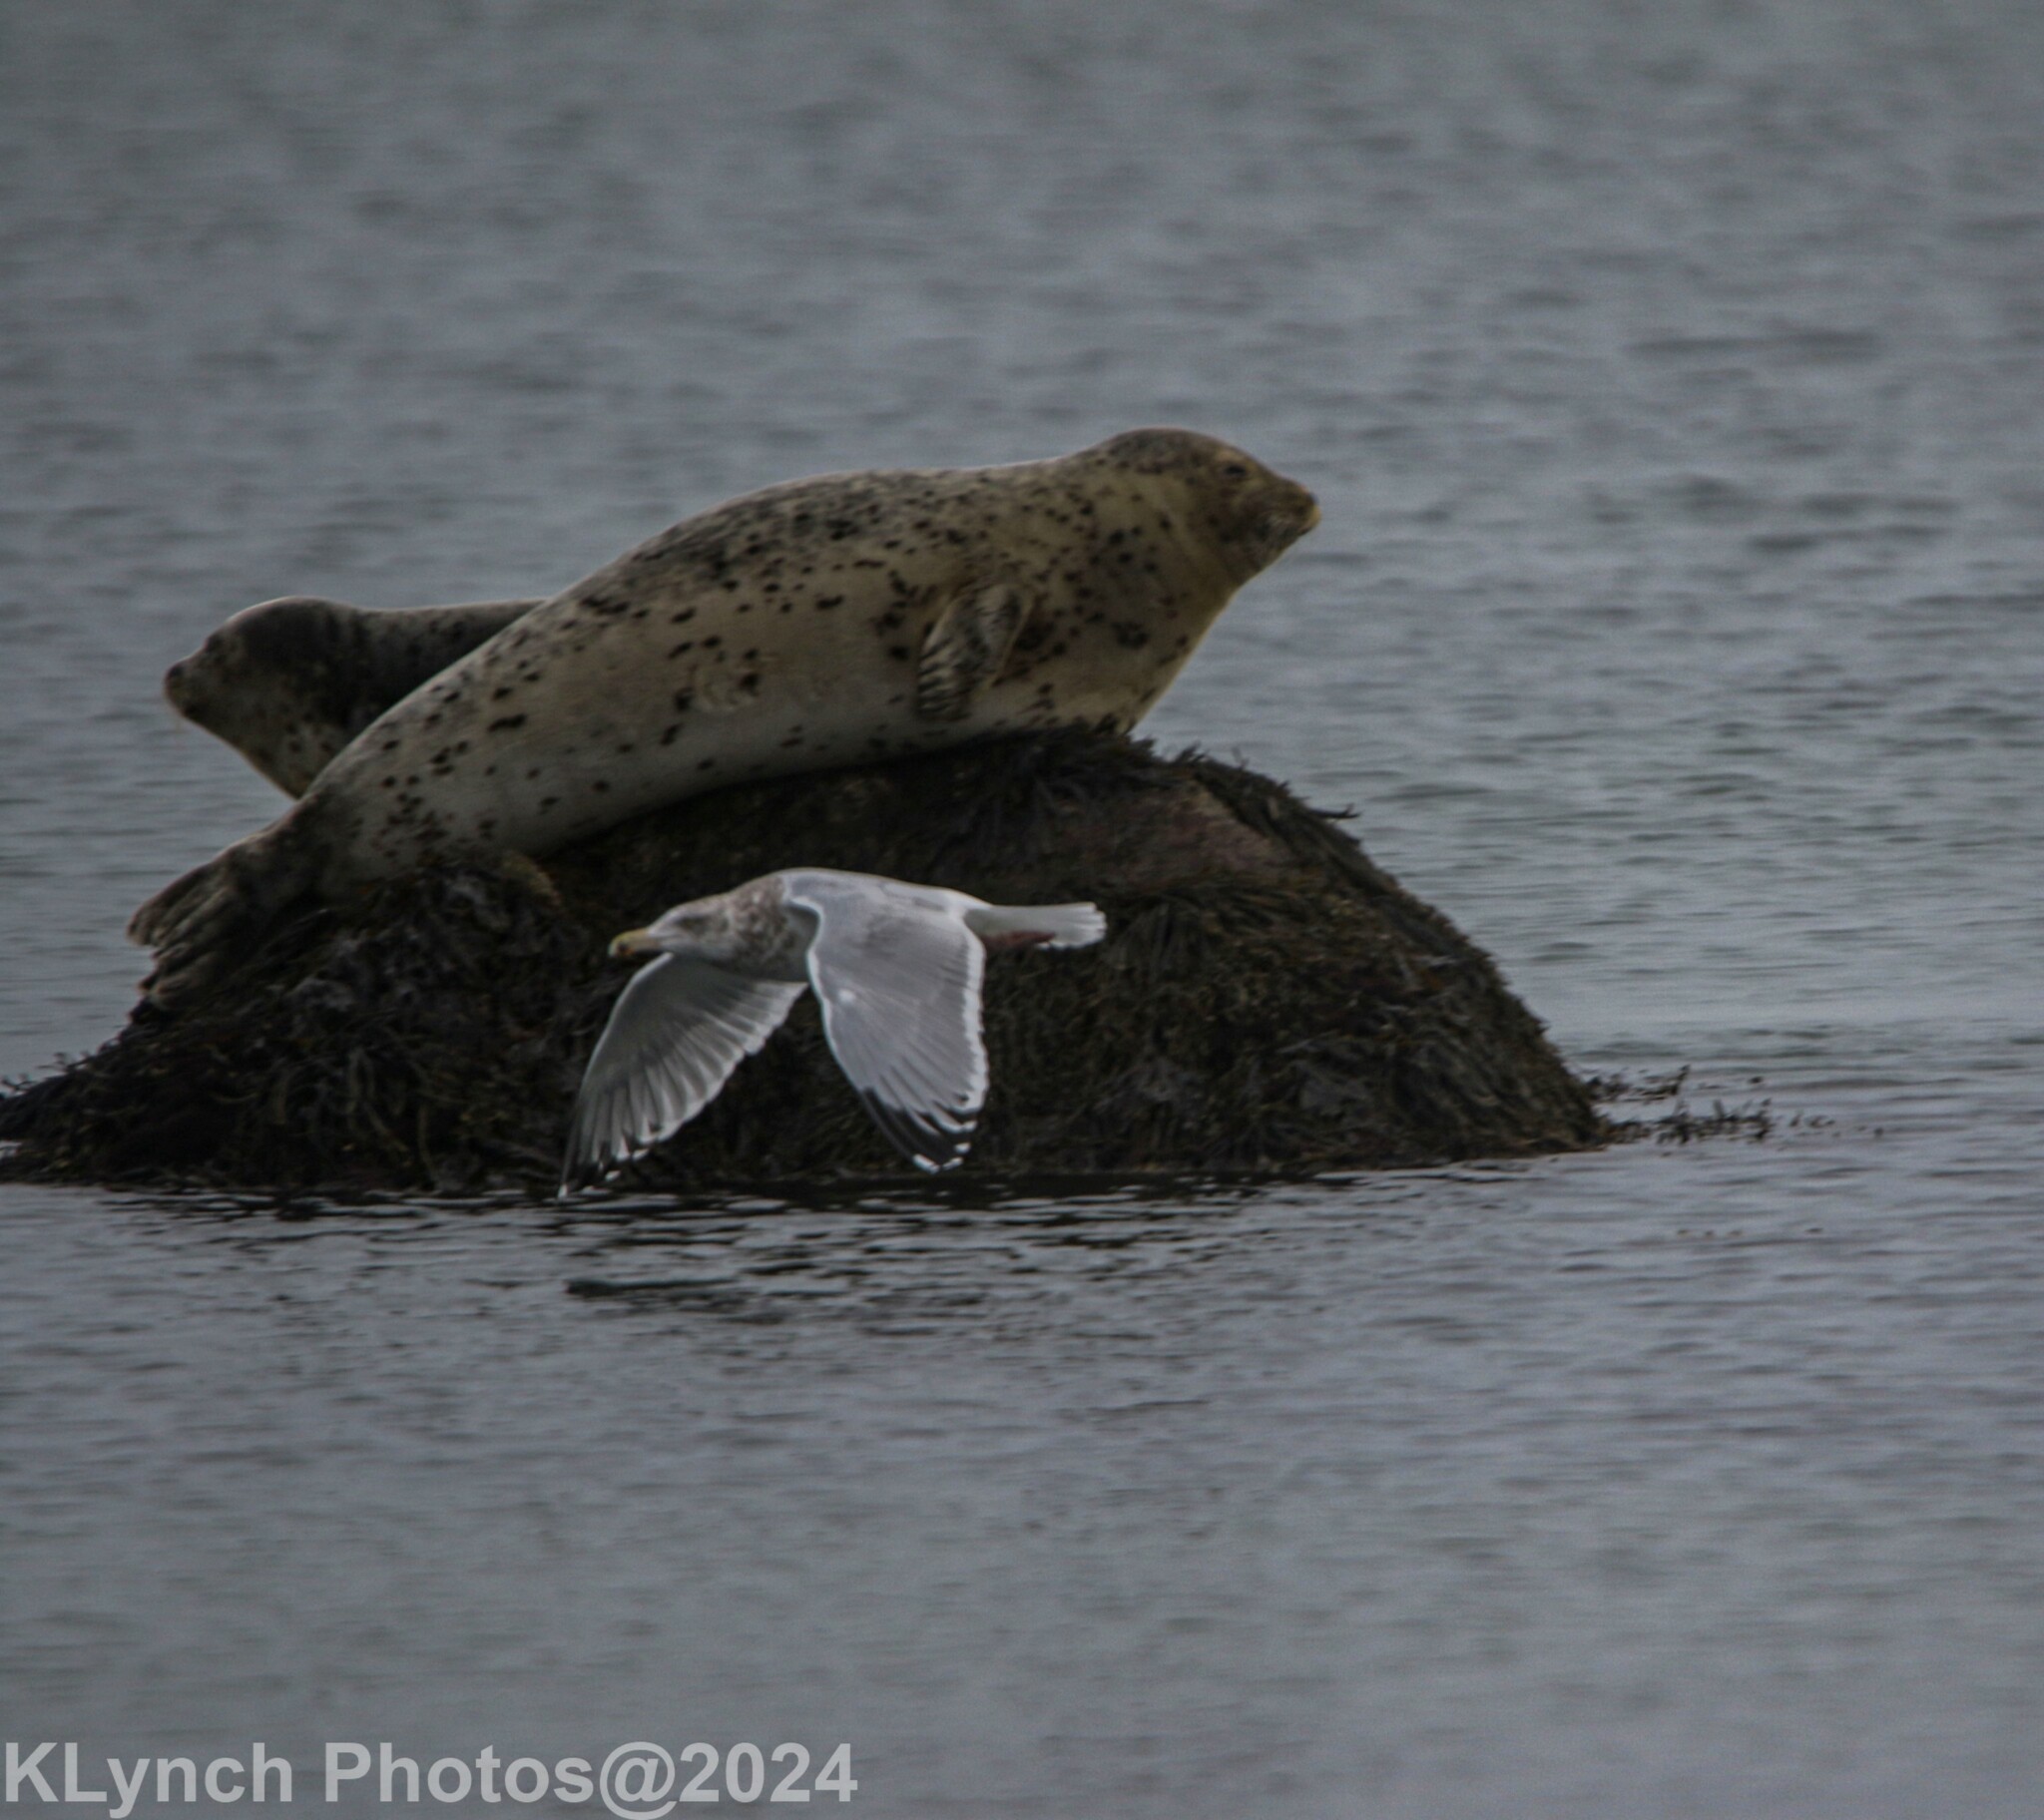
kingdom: Animalia
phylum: Chordata
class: Aves
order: Charadriiformes
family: Laridae
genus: Larus
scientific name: Larus argentatus
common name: Herring gull
